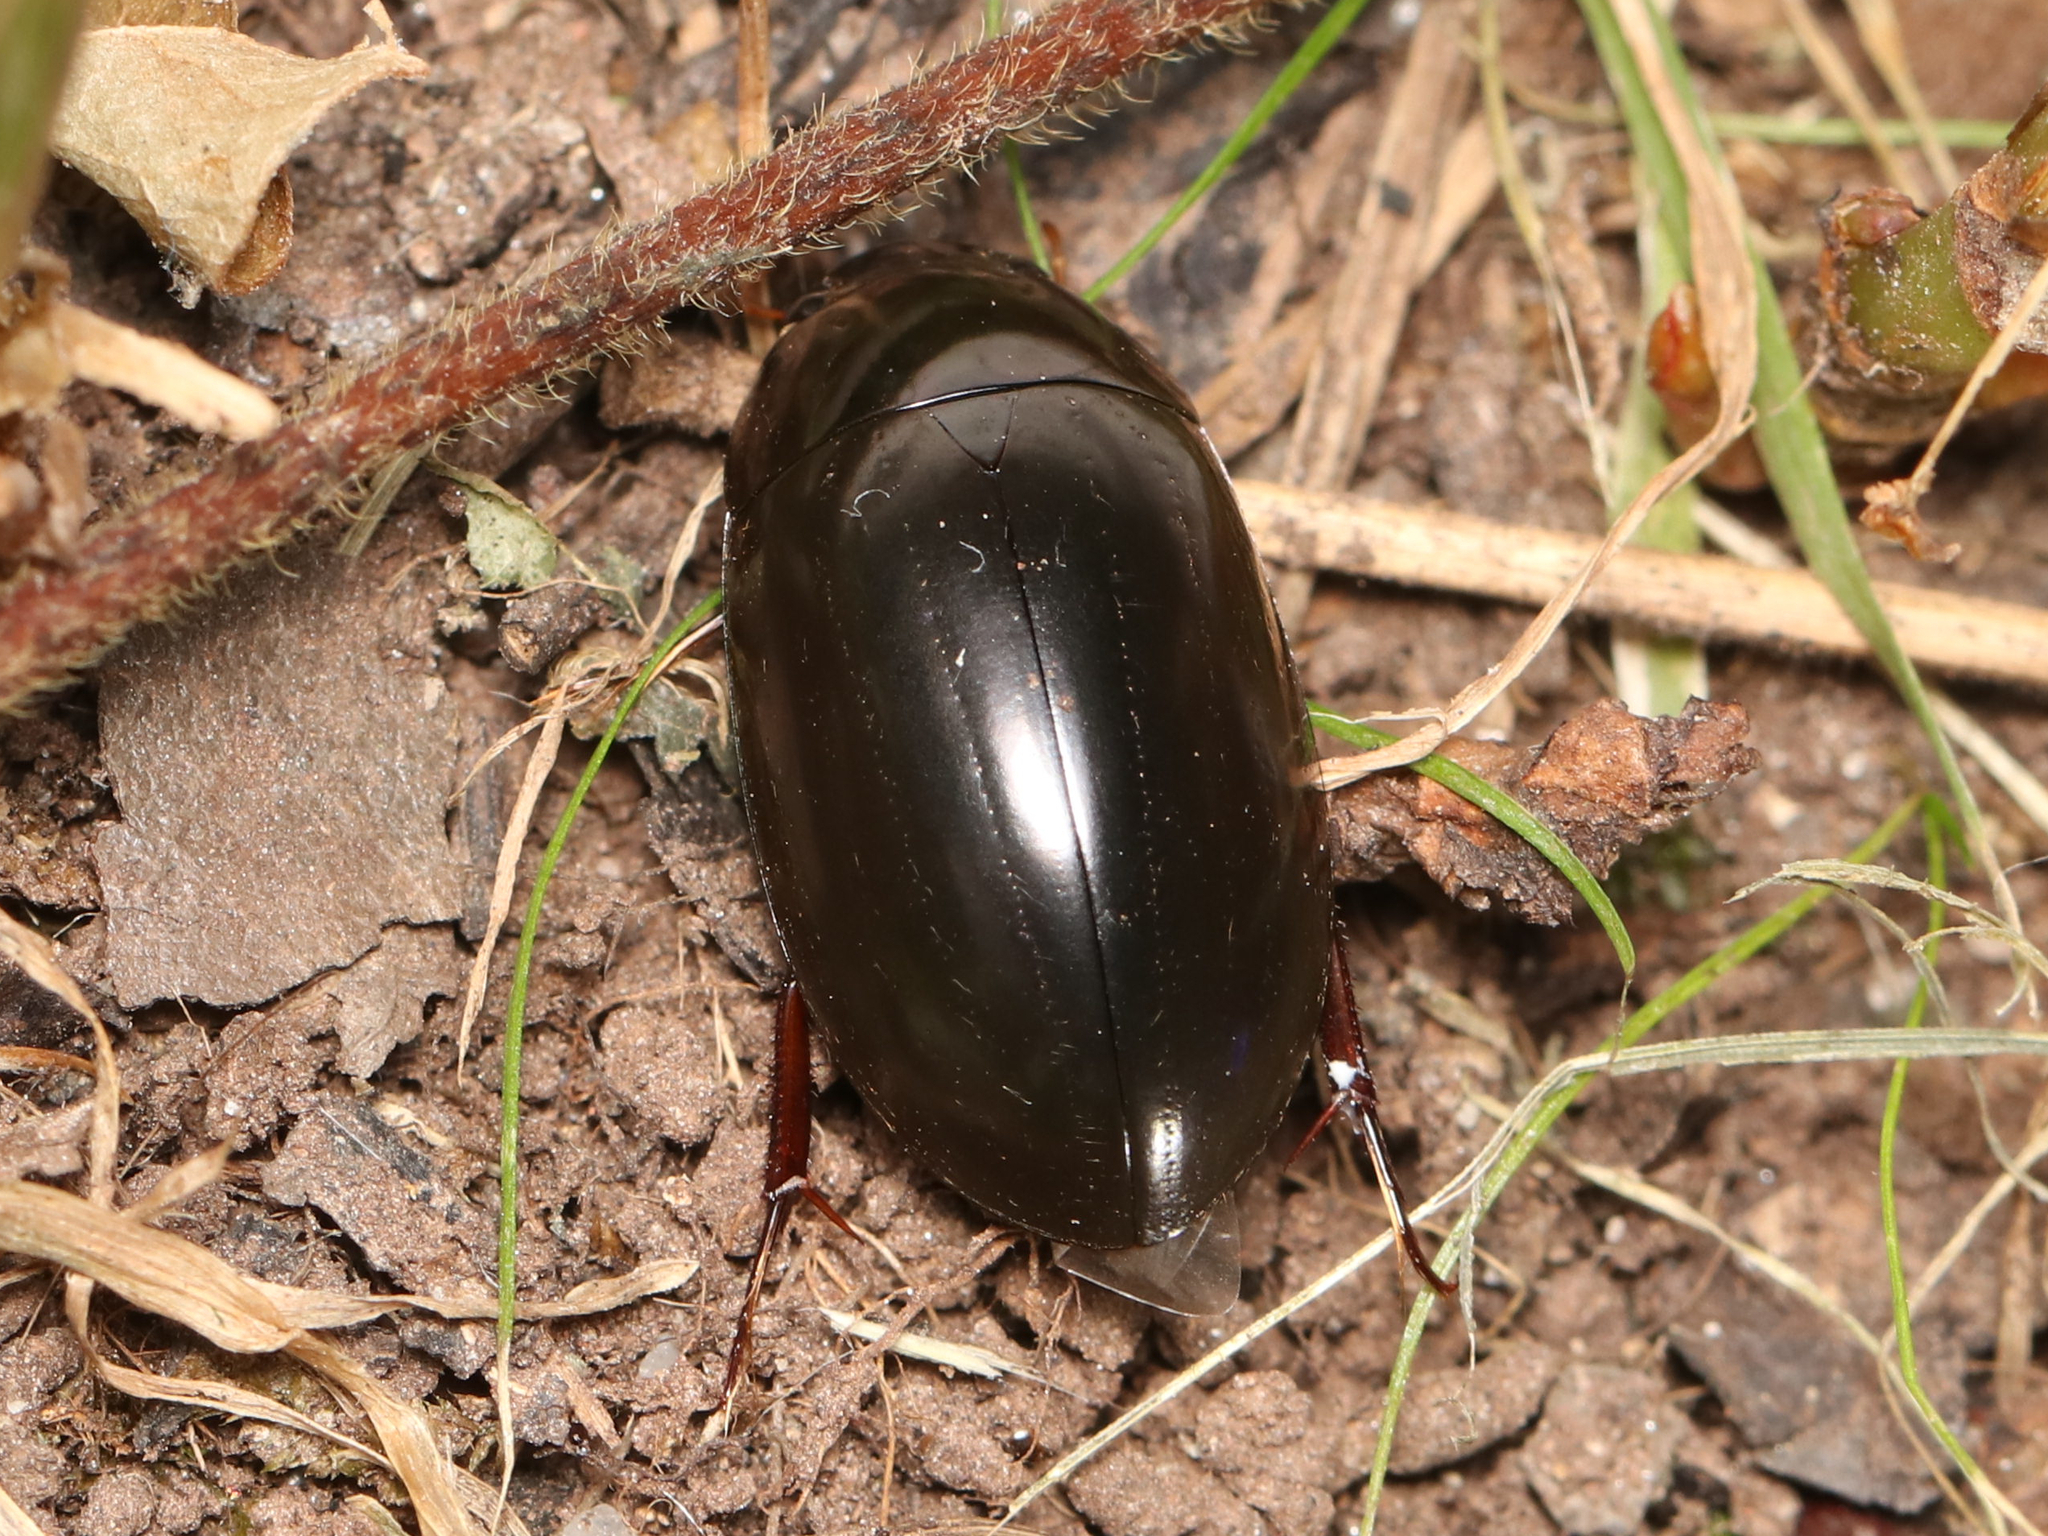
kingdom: Animalia
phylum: Arthropoda
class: Insecta
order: Coleoptera
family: Hydrophilidae
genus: Hydrochara
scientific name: Hydrochara
